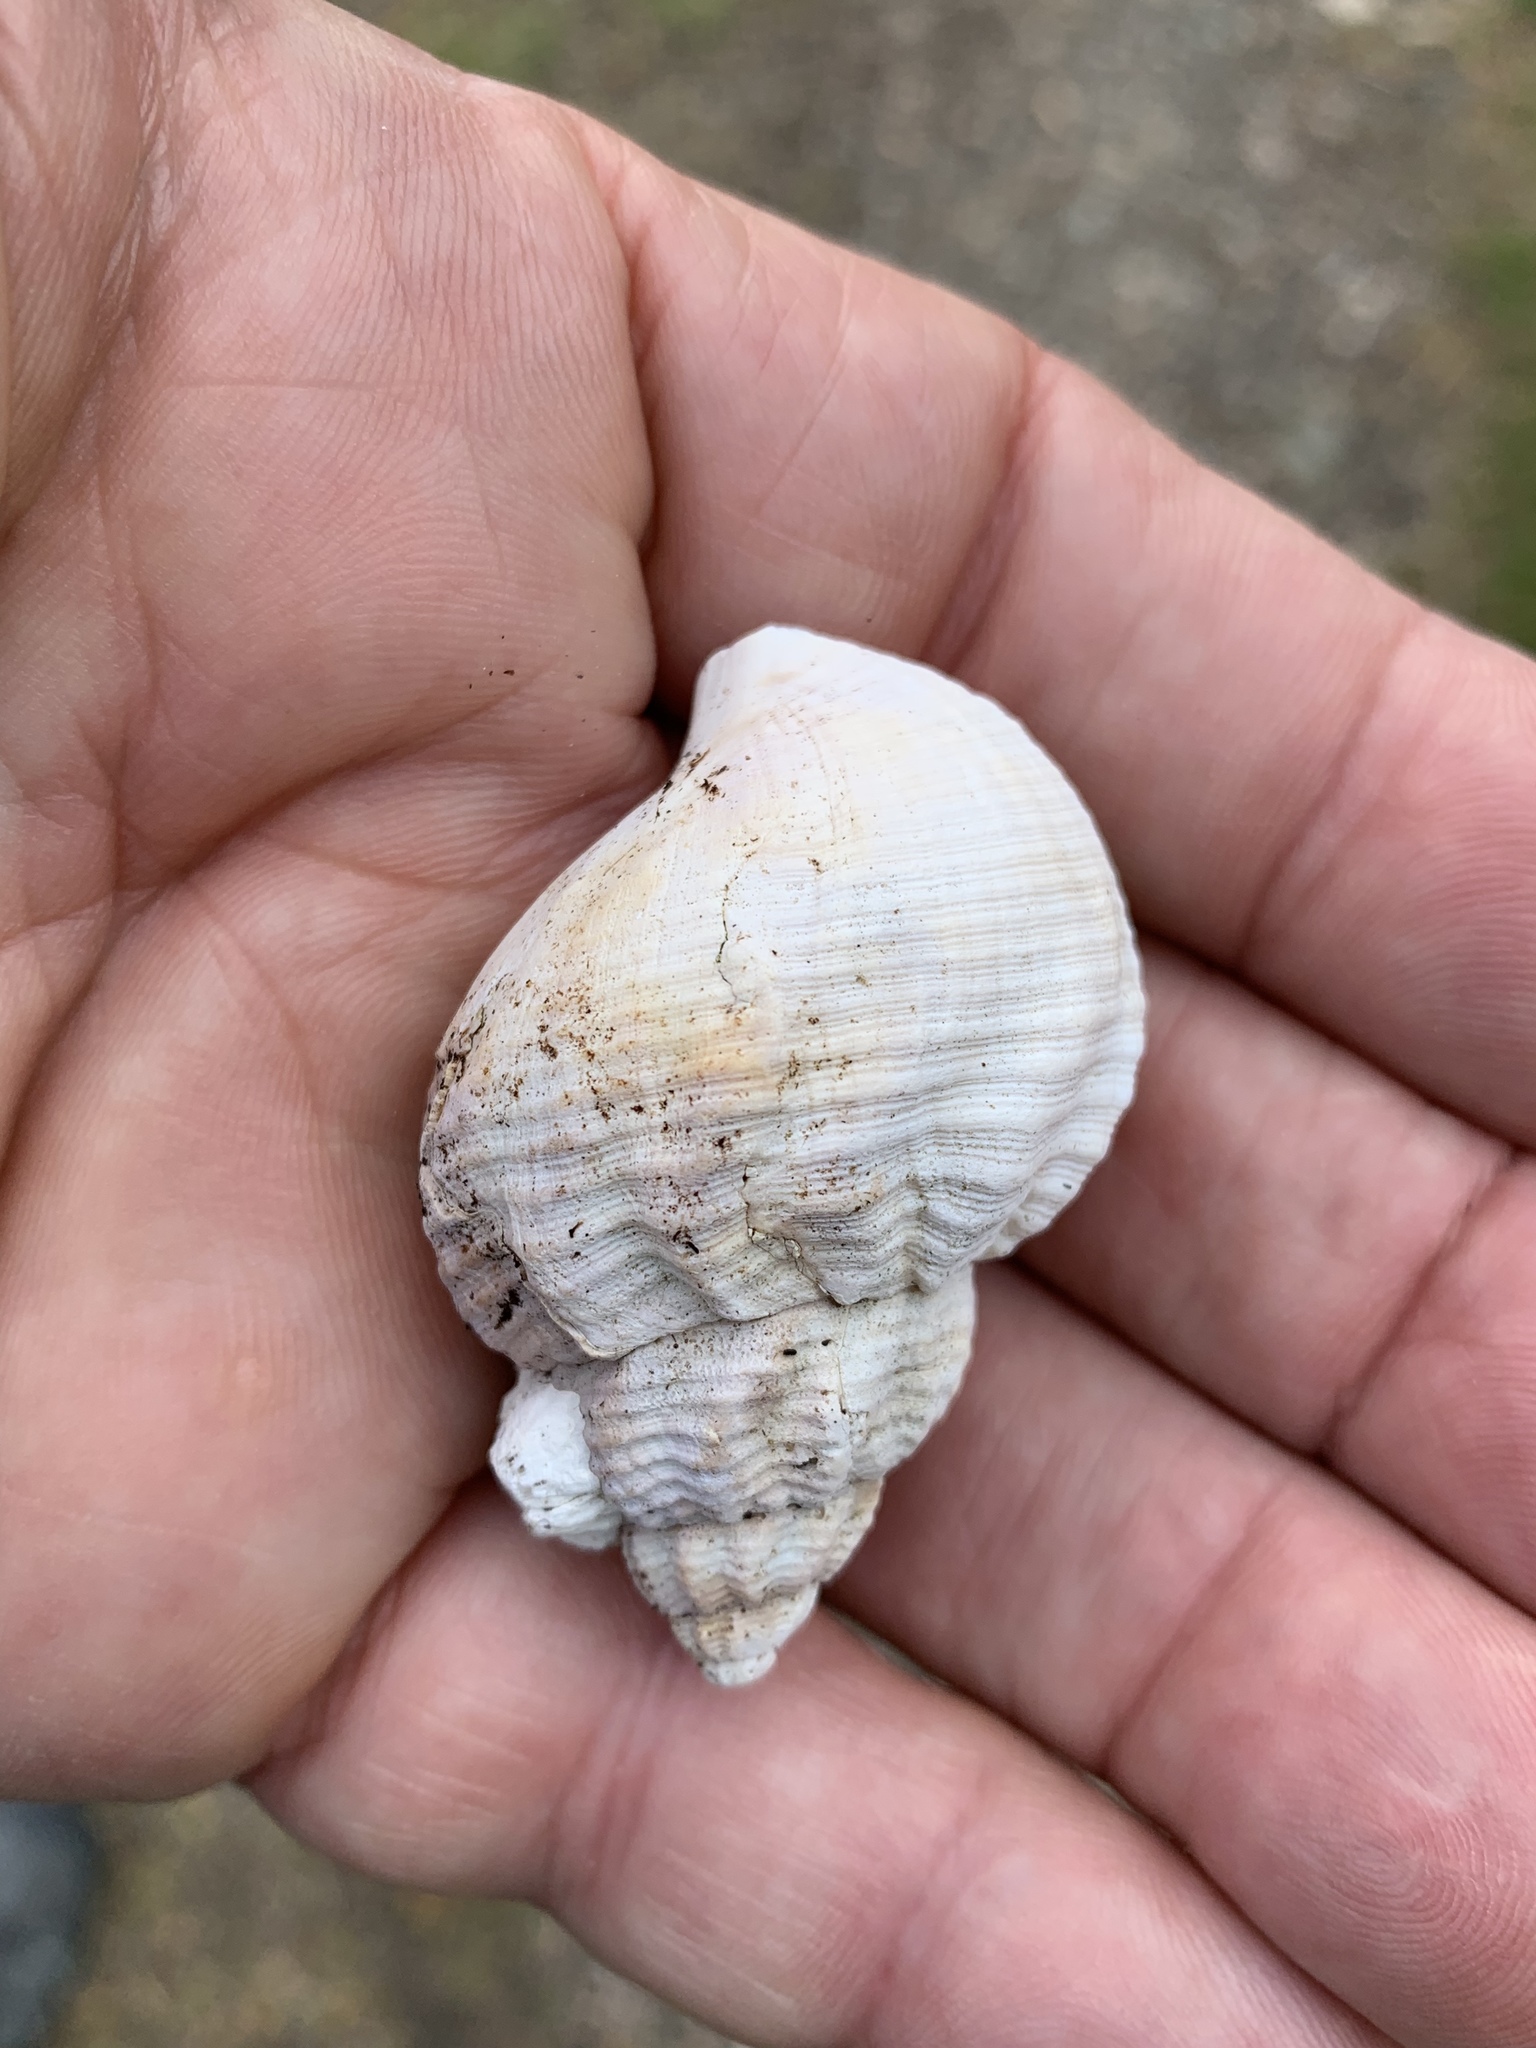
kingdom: Animalia
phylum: Mollusca
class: Gastropoda
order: Neogastropoda
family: Buccinidae
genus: Buccinum
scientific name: Buccinum undatum
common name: Common whelk
